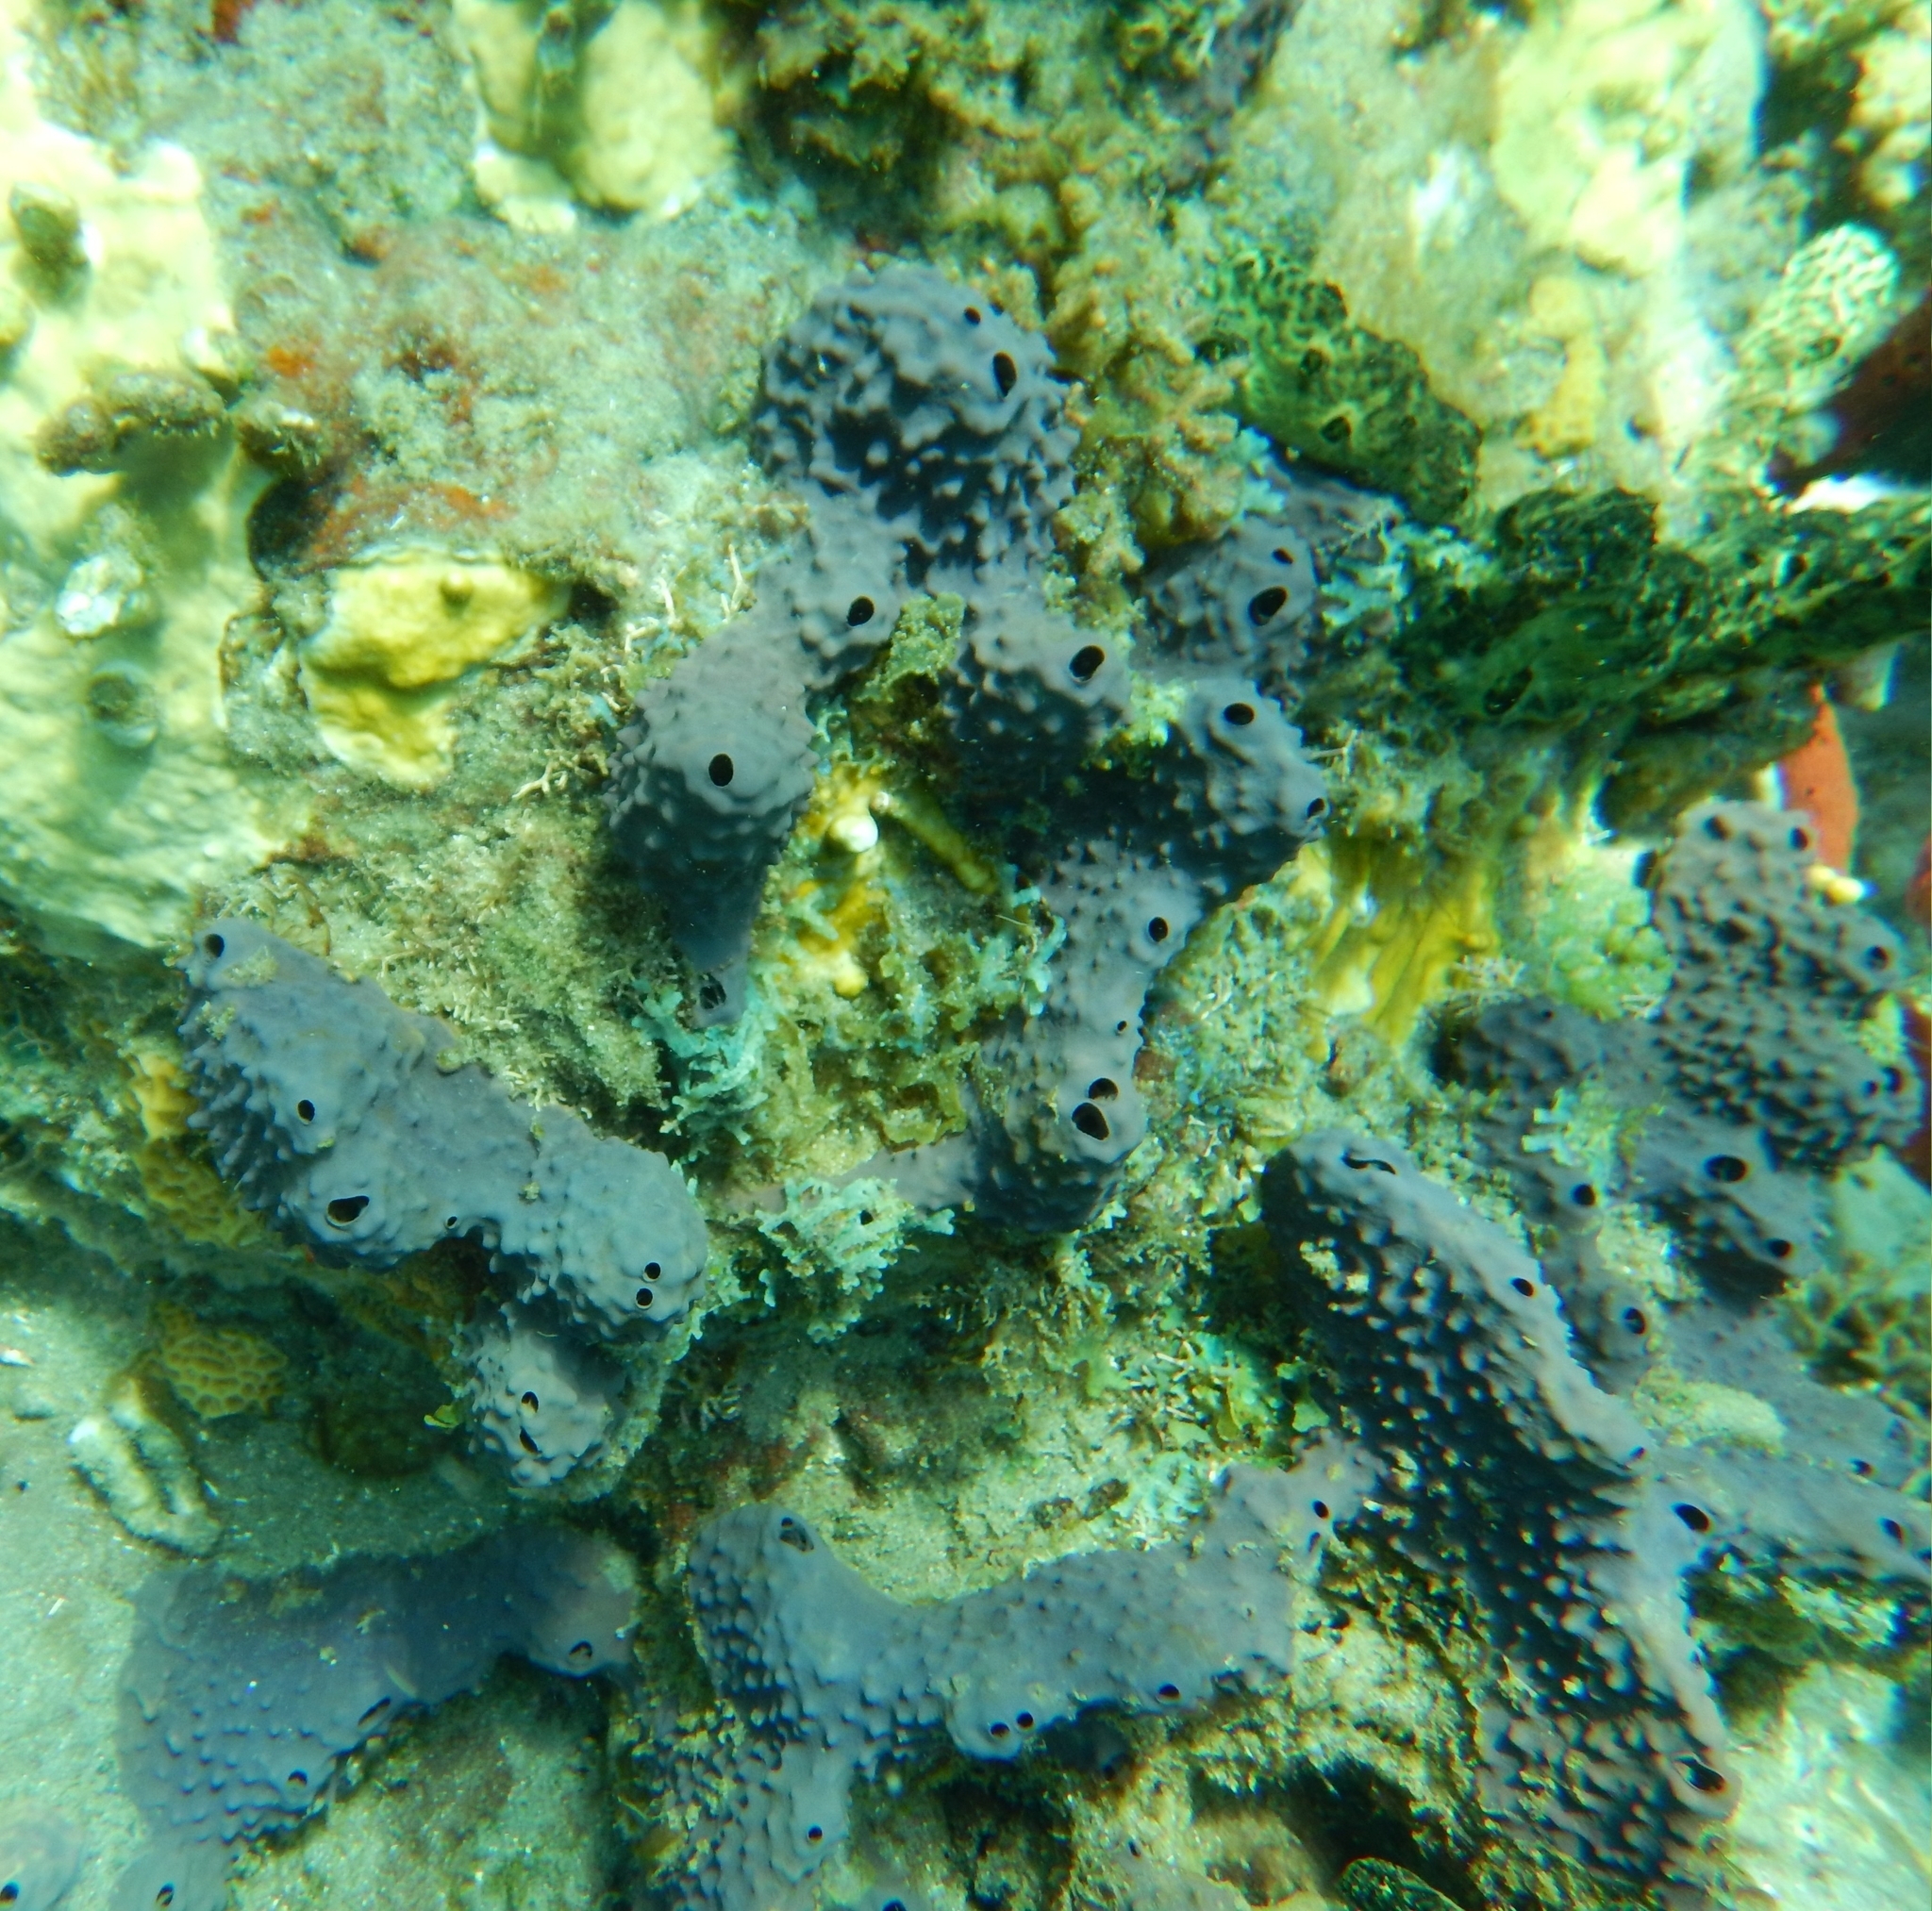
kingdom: Animalia
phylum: Porifera
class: Demospongiae
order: Verongiida
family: Aplysinidae
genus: Aiolochroia
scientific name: Aiolochroia crassa
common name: Branching tube sponge
